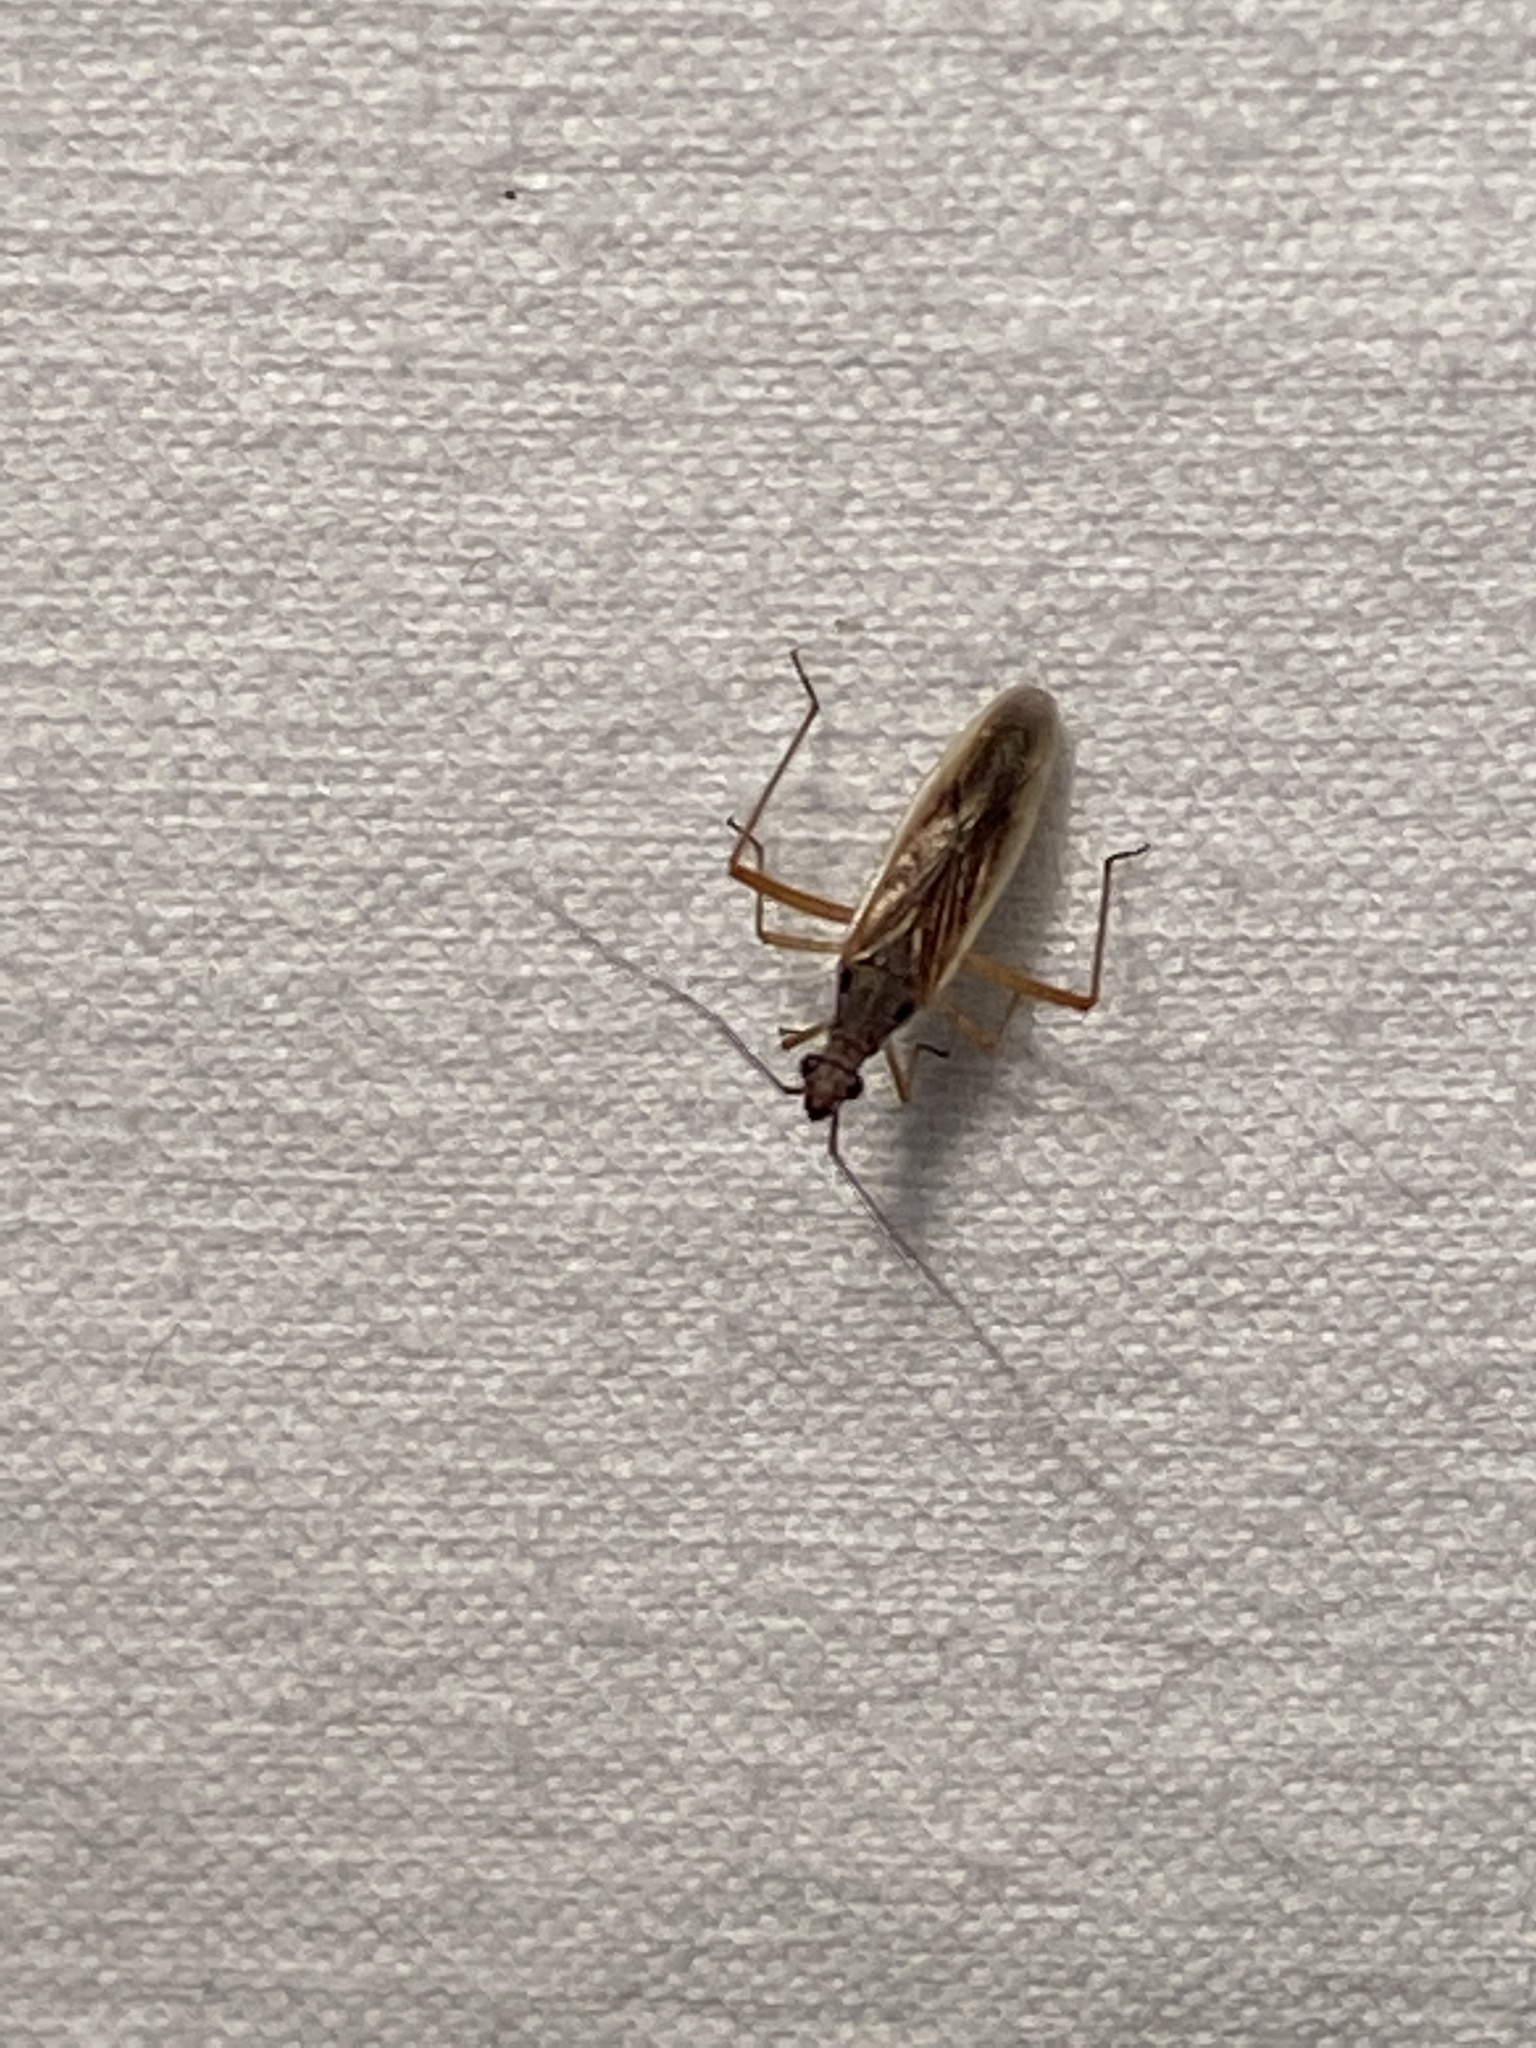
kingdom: Animalia
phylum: Arthropoda
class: Insecta
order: Hemiptera
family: Miridae
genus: Collaria
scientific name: Collaria oculata
